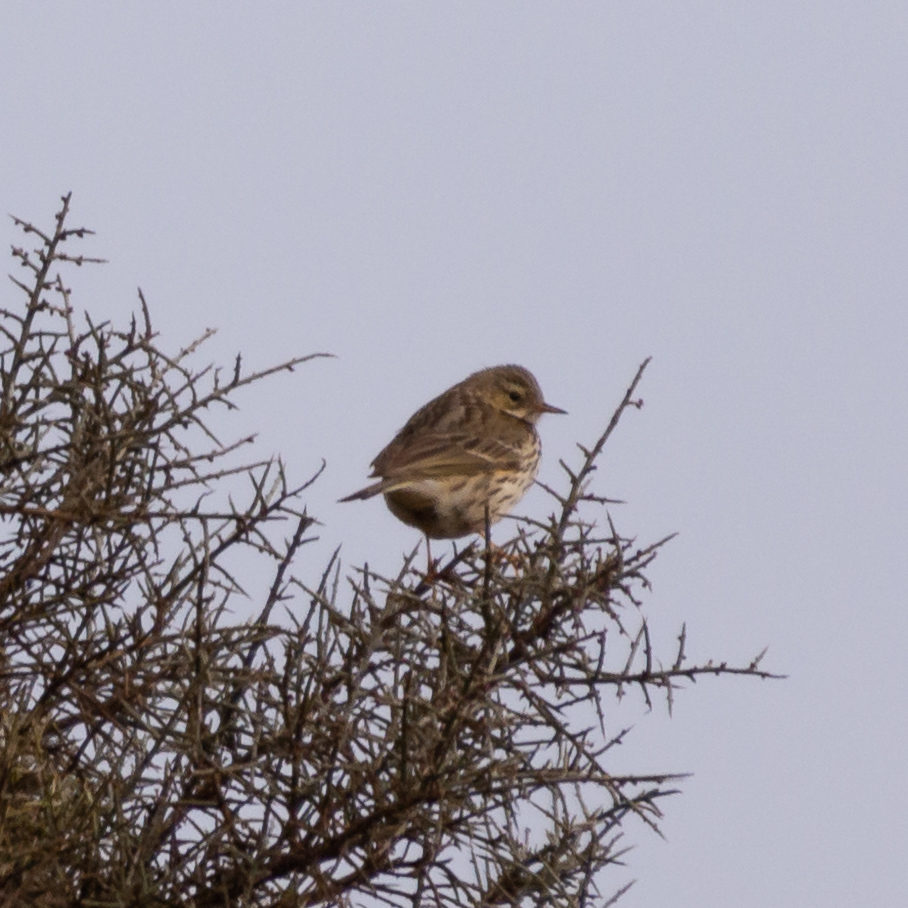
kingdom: Animalia
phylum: Chordata
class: Aves
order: Passeriformes
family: Motacillidae
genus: Anthus
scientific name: Anthus pratensis
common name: Meadow pipit
